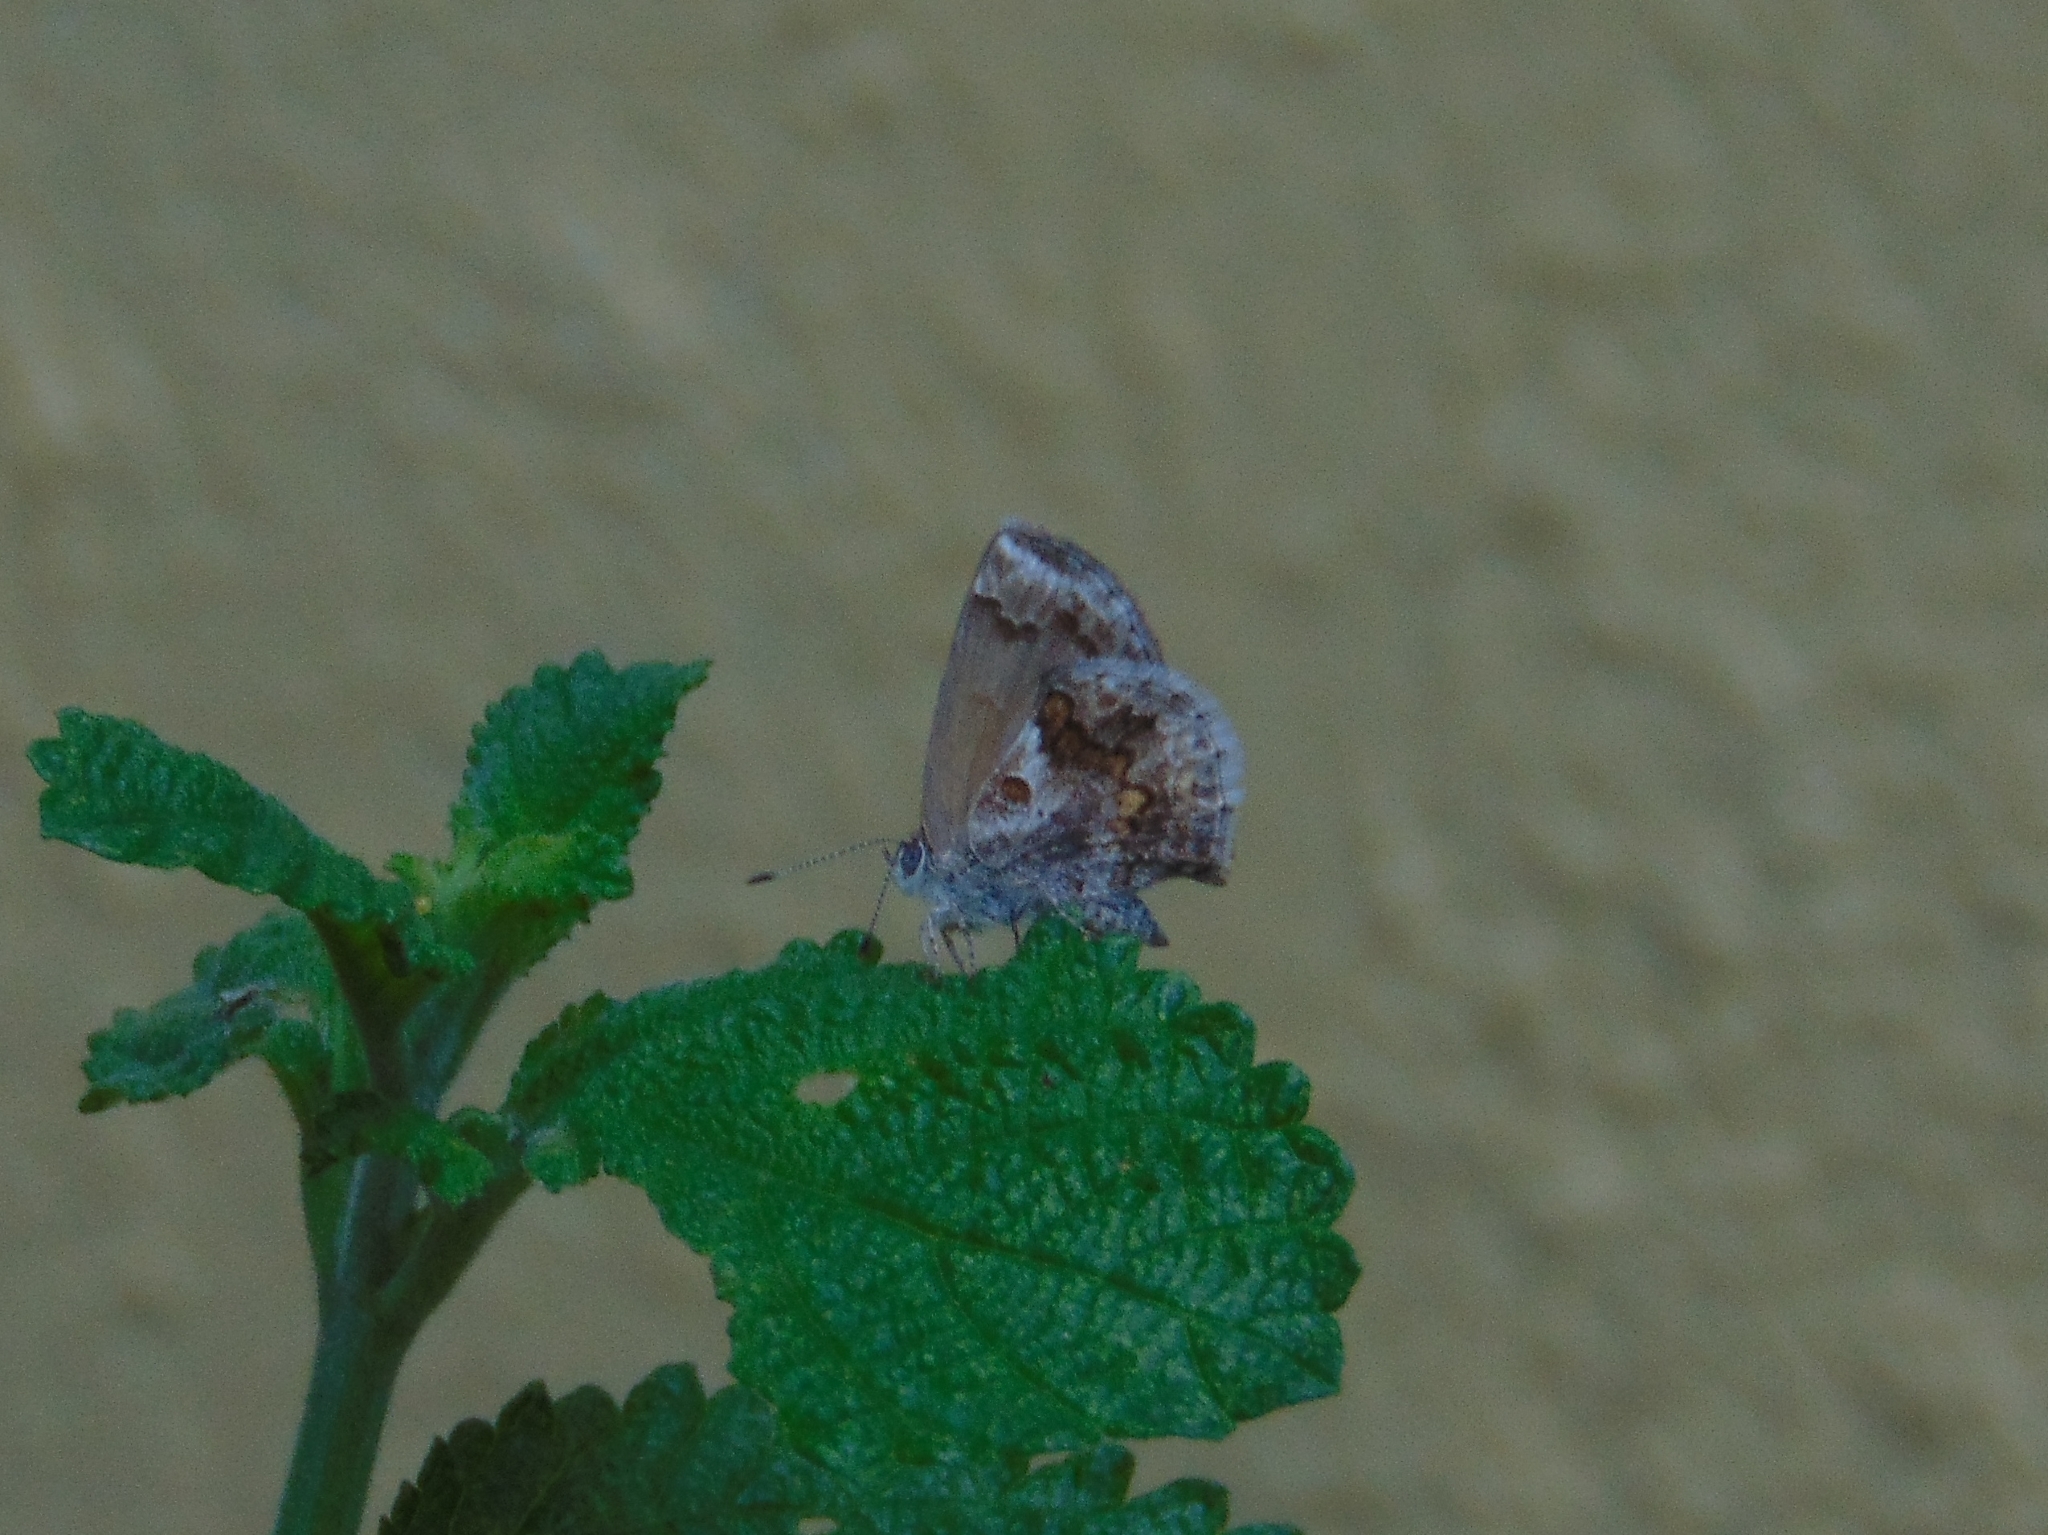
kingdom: Animalia
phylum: Arthropoda
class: Insecta
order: Lepidoptera
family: Lycaenidae
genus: Strymon
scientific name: Strymon bazochii
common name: Lantana scrub-hairstreak
